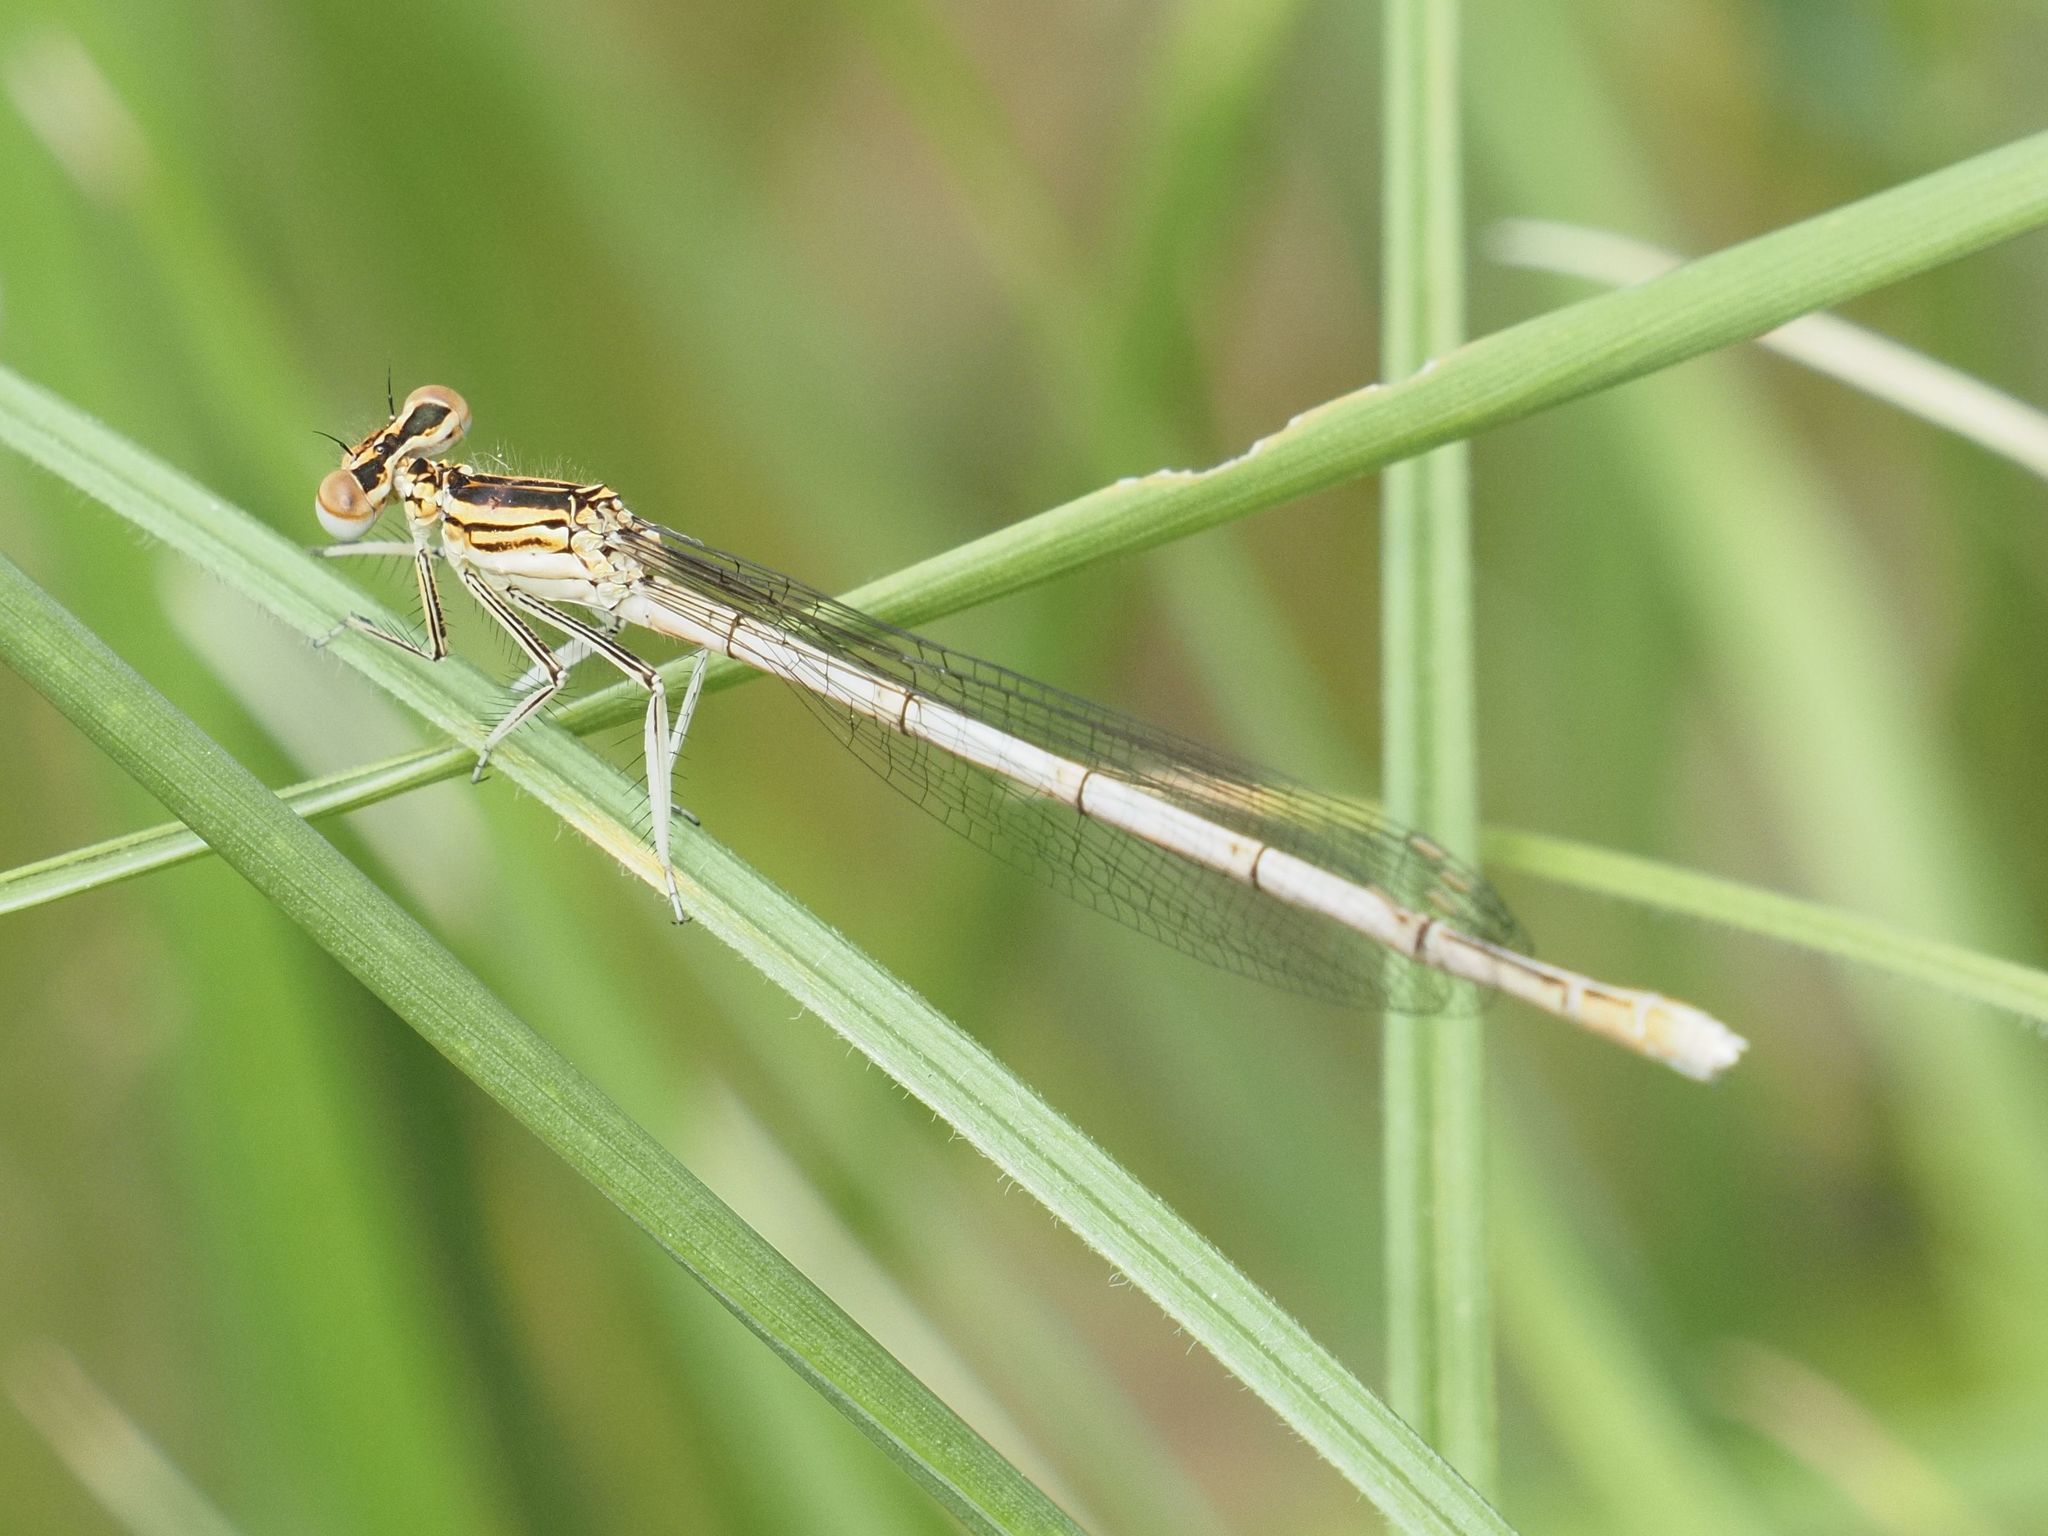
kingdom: Animalia
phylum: Arthropoda
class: Insecta
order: Odonata
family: Platycnemididae
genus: Platycnemis
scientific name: Platycnemis pennipes
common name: White-legged damselfly
